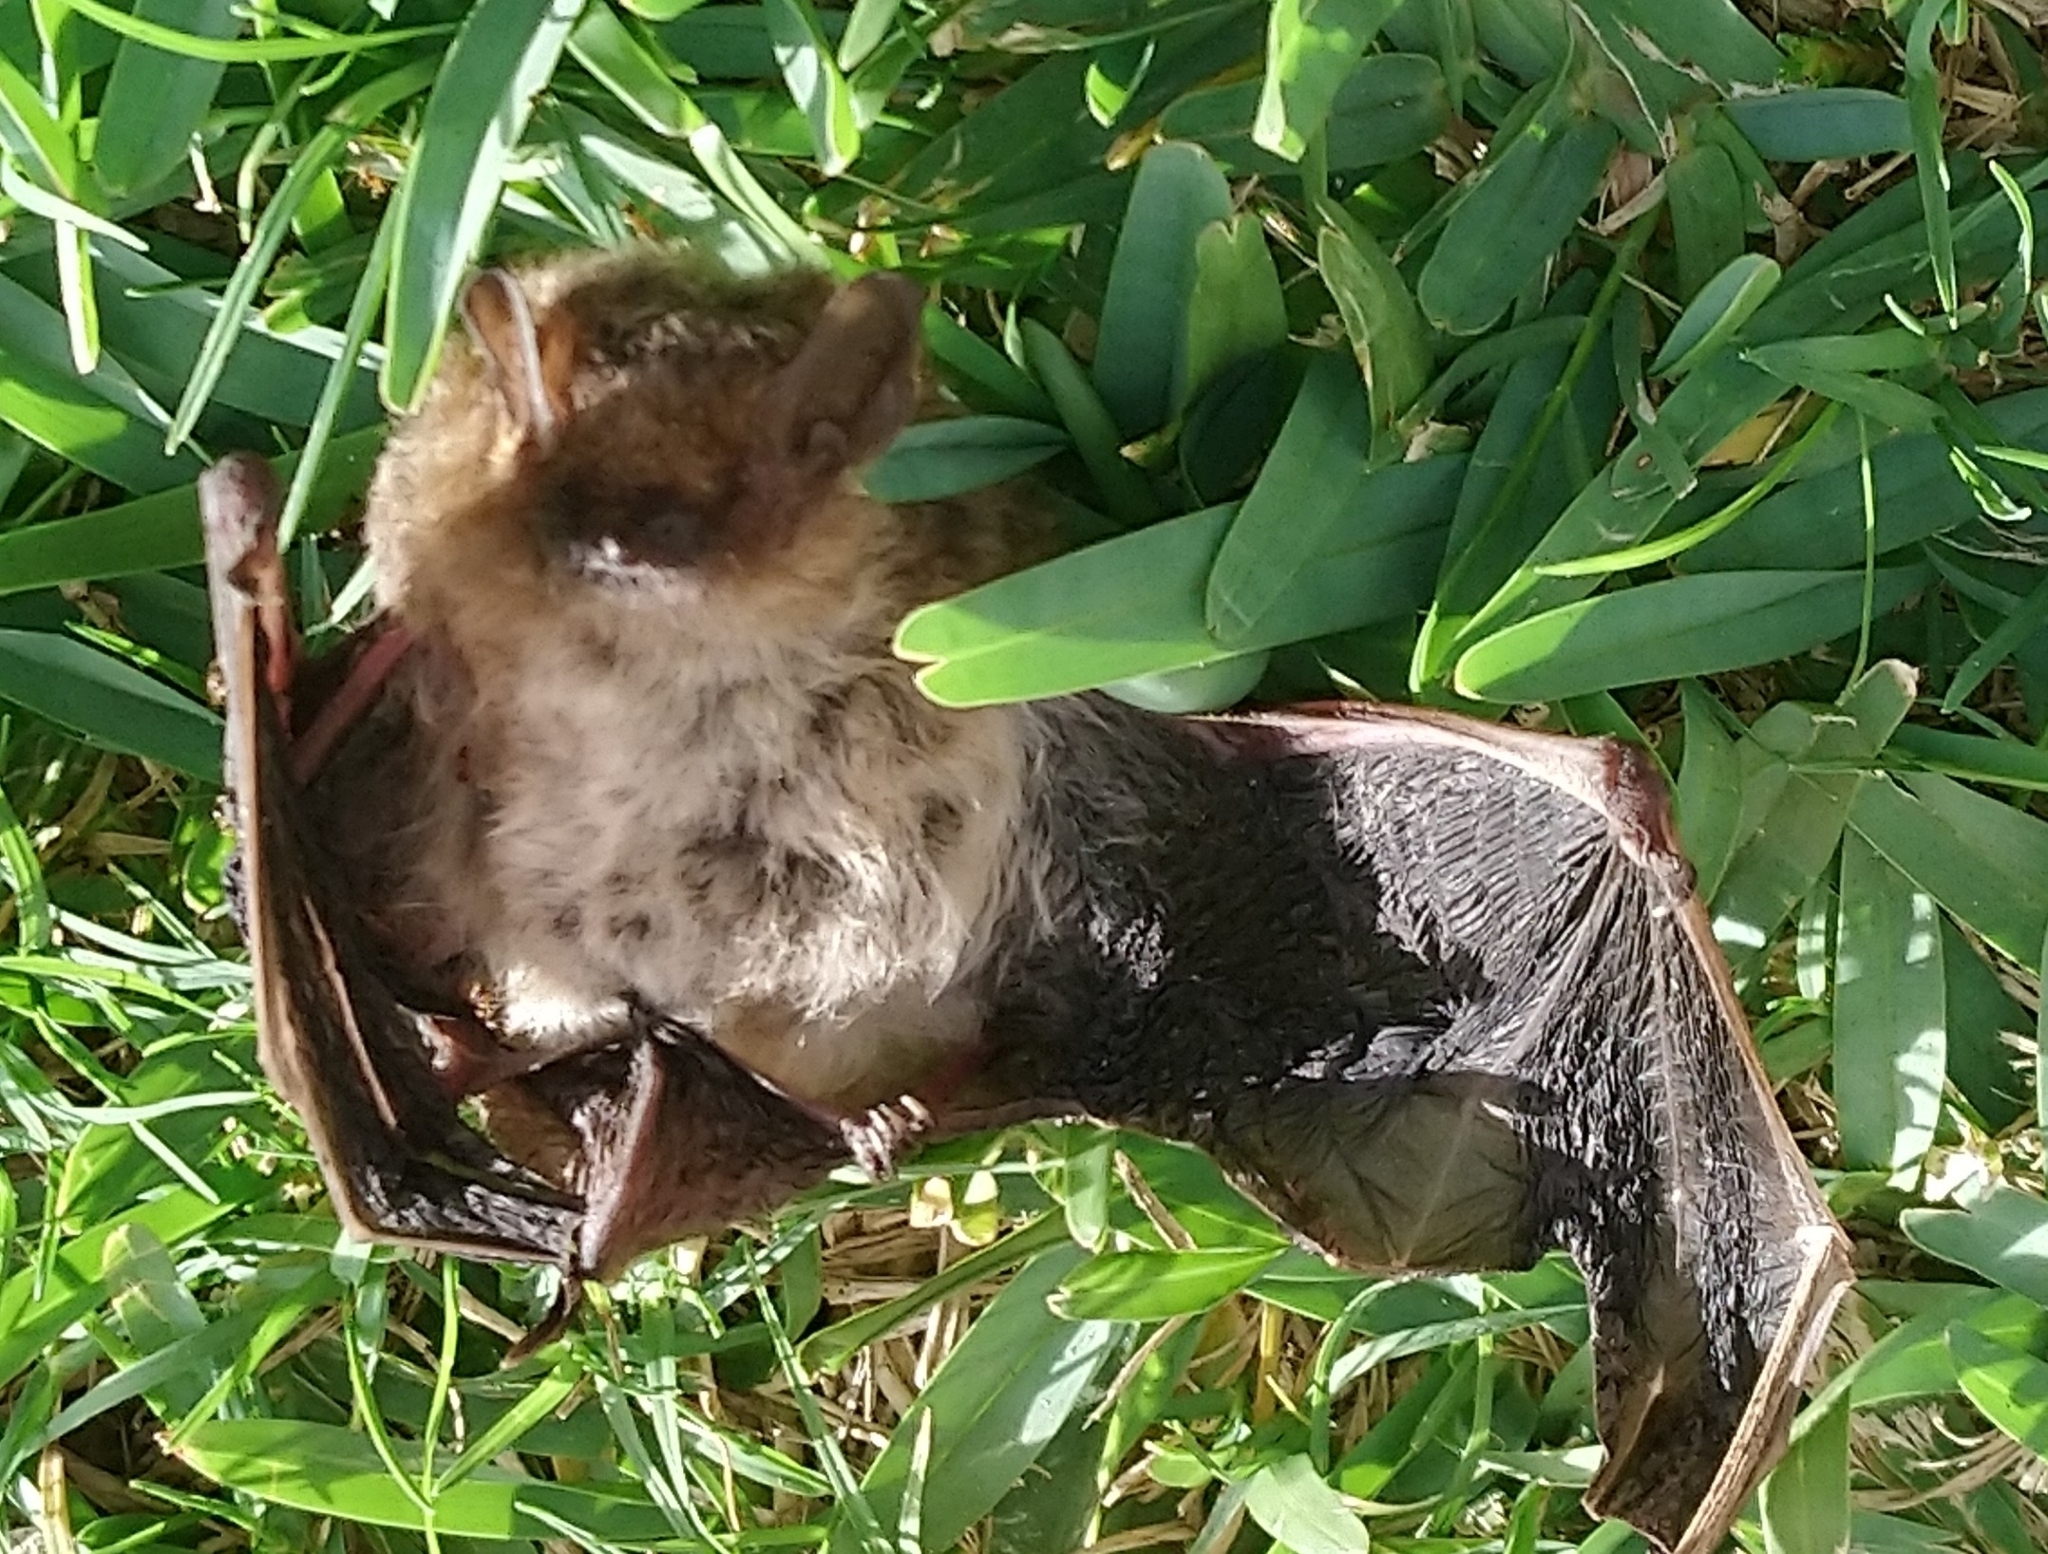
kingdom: Animalia
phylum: Chordata
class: Mammalia
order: Chiroptera
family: Vespertilionidae
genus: Laephotis
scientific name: Laephotis capensis
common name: Cape serotine
